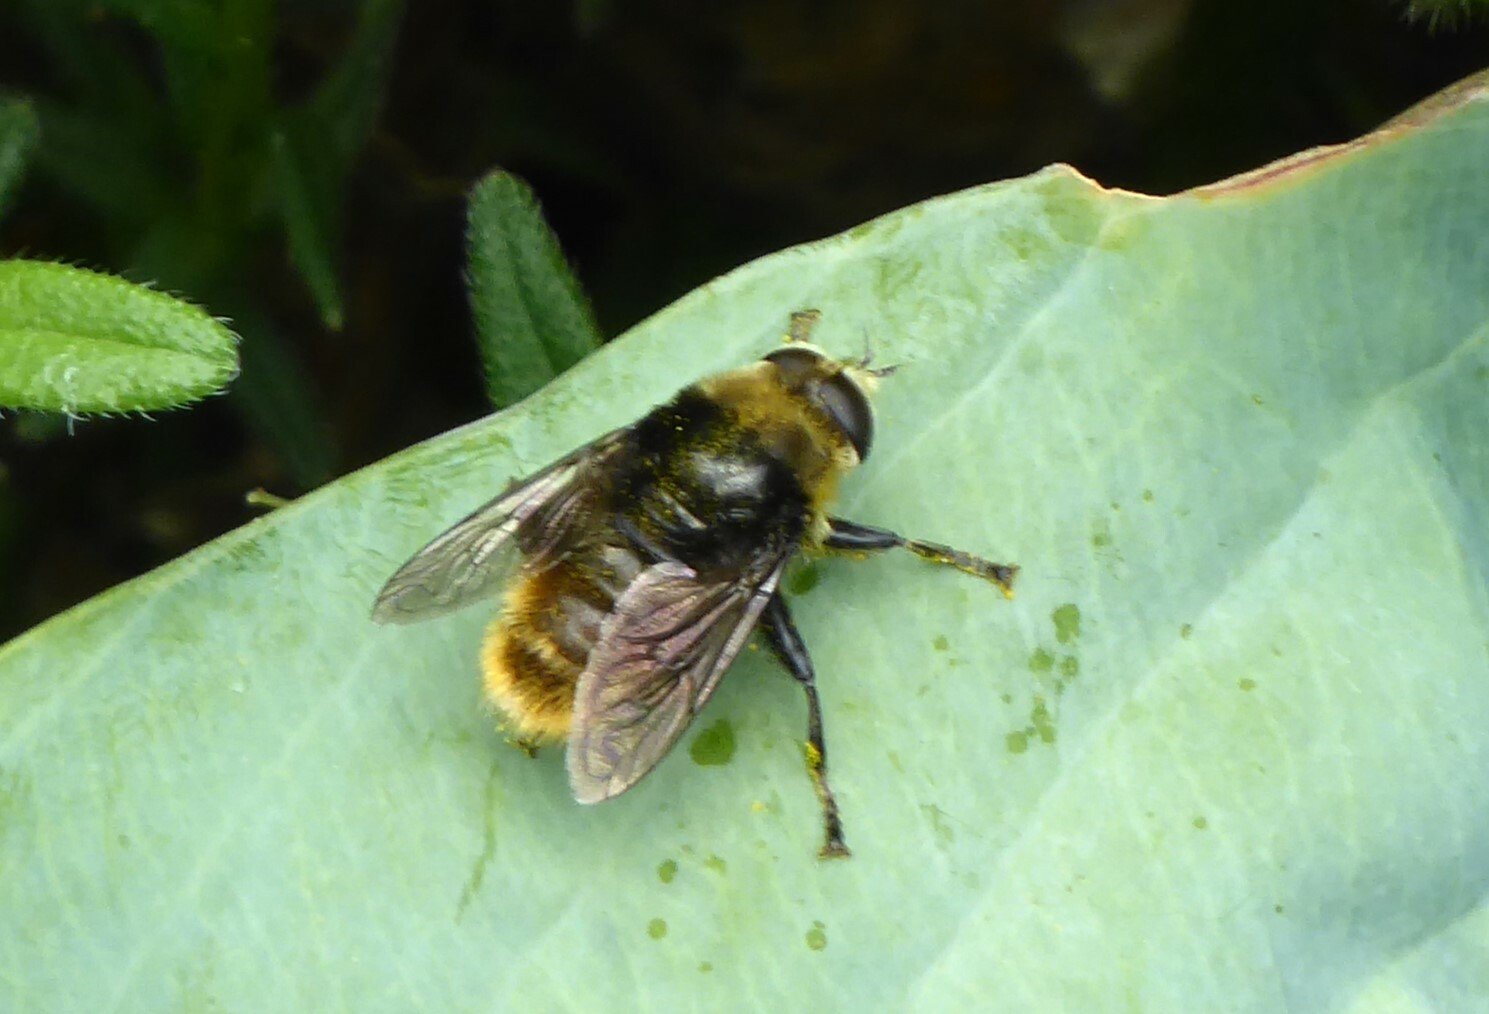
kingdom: Animalia
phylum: Arthropoda
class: Insecta
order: Diptera
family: Syrphidae
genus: Merodon
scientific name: Merodon equestris
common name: Greater bulb-fly
